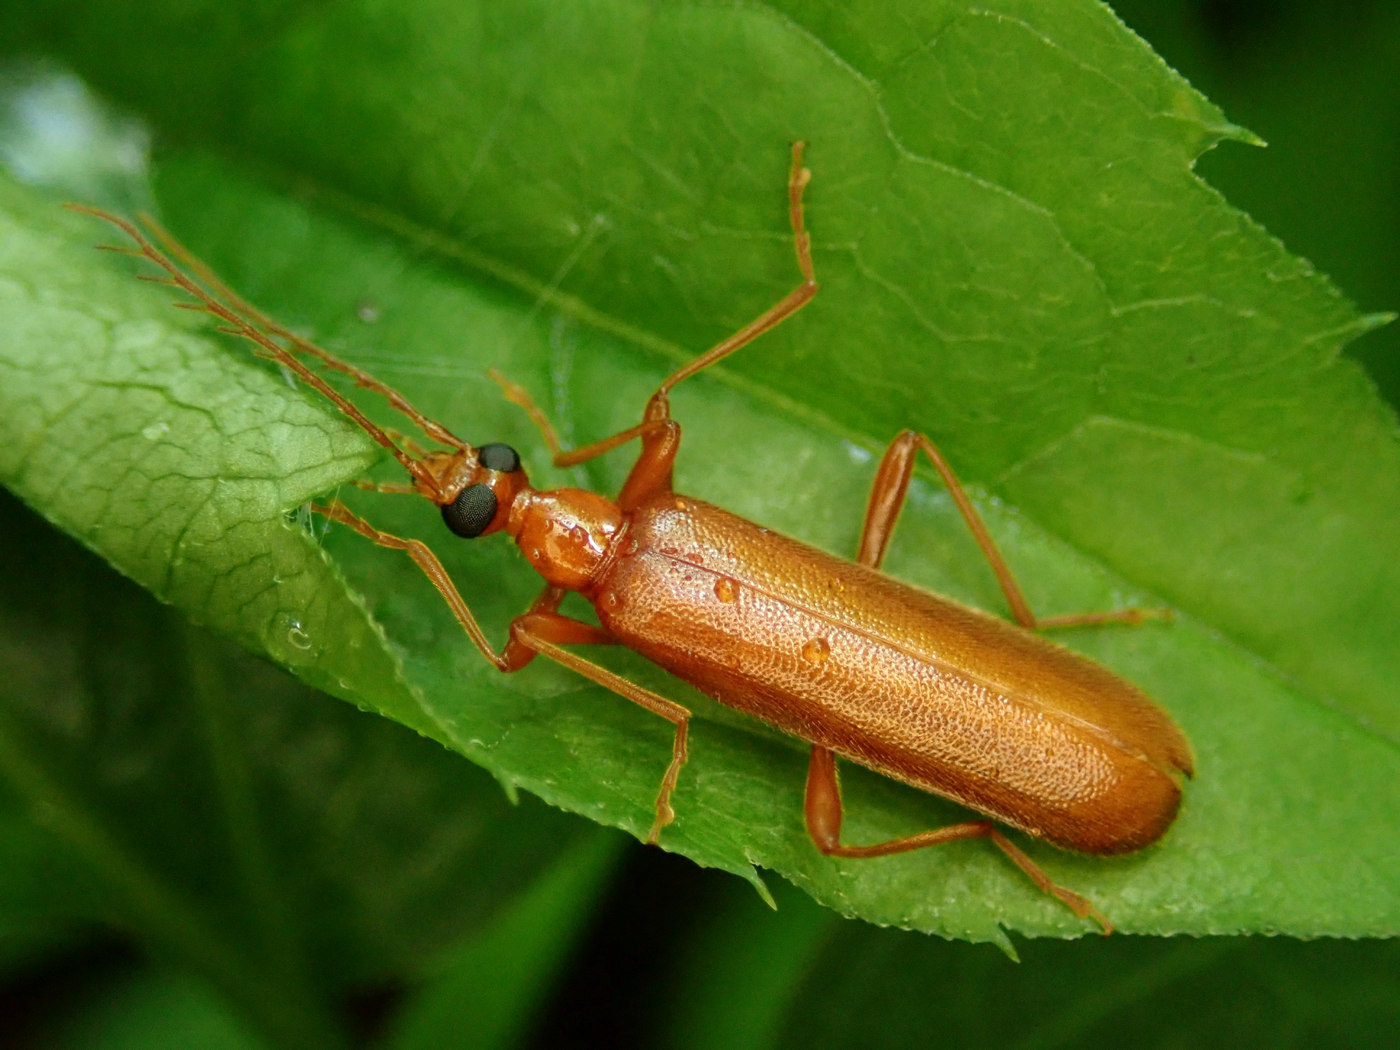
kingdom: Animalia
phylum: Arthropoda
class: Insecta
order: Coleoptera
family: Pyrochroidae
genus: Dendroides
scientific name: Dendroides concolor
